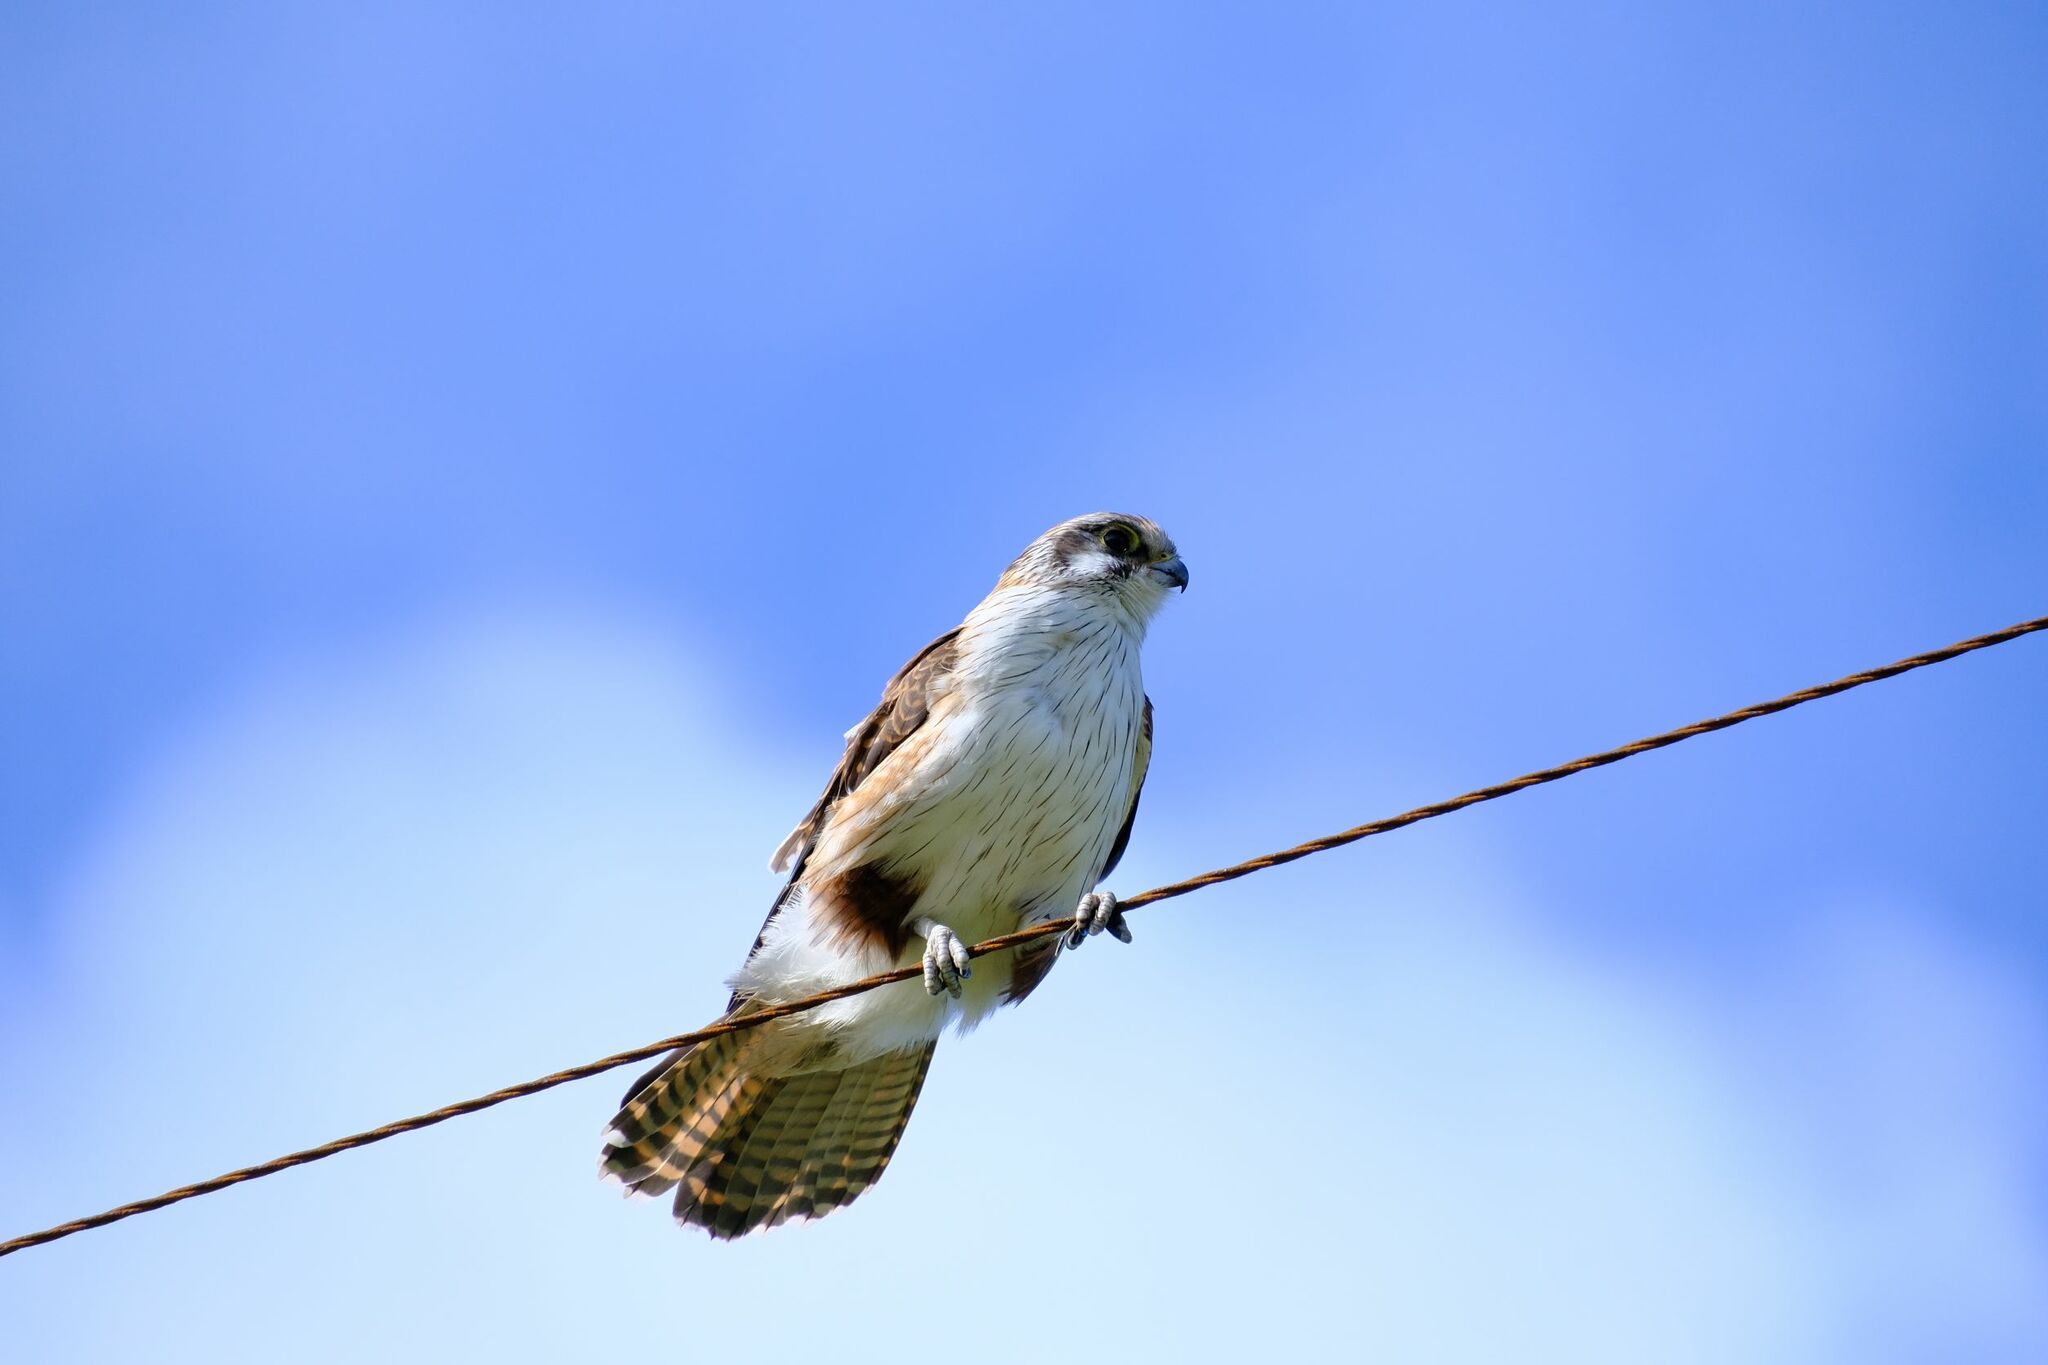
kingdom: Animalia
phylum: Chordata
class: Aves
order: Falconiformes
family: Falconidae
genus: Falco
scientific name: Falco berigora
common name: Brown falcon
